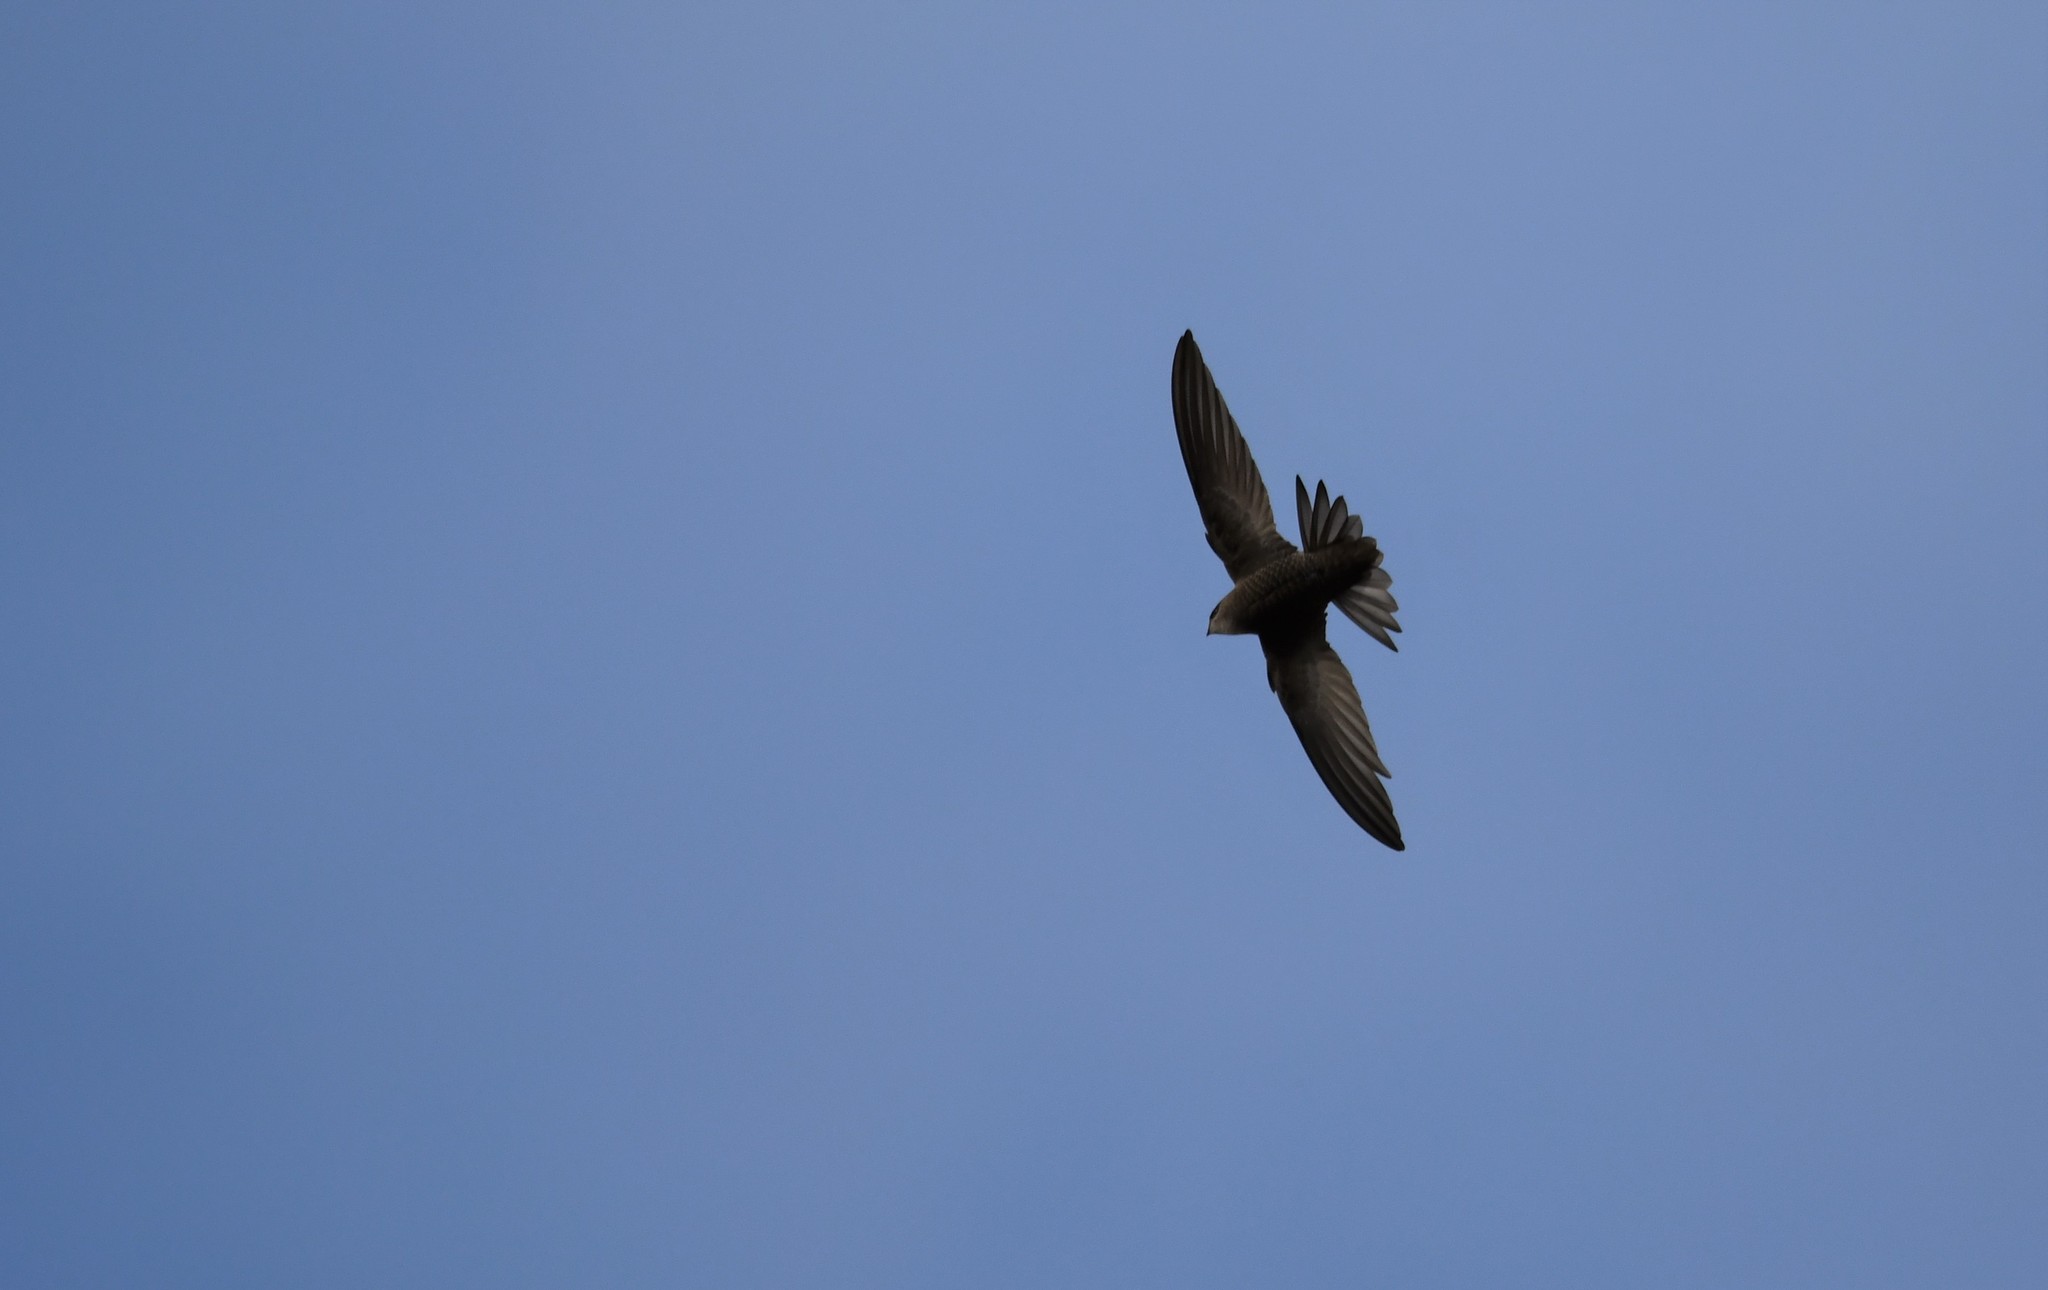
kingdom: Animalia
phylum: Chordata
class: Aves
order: Apodiformes
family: Apodidae
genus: Apus
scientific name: Apus pallidus
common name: Pallid swift
